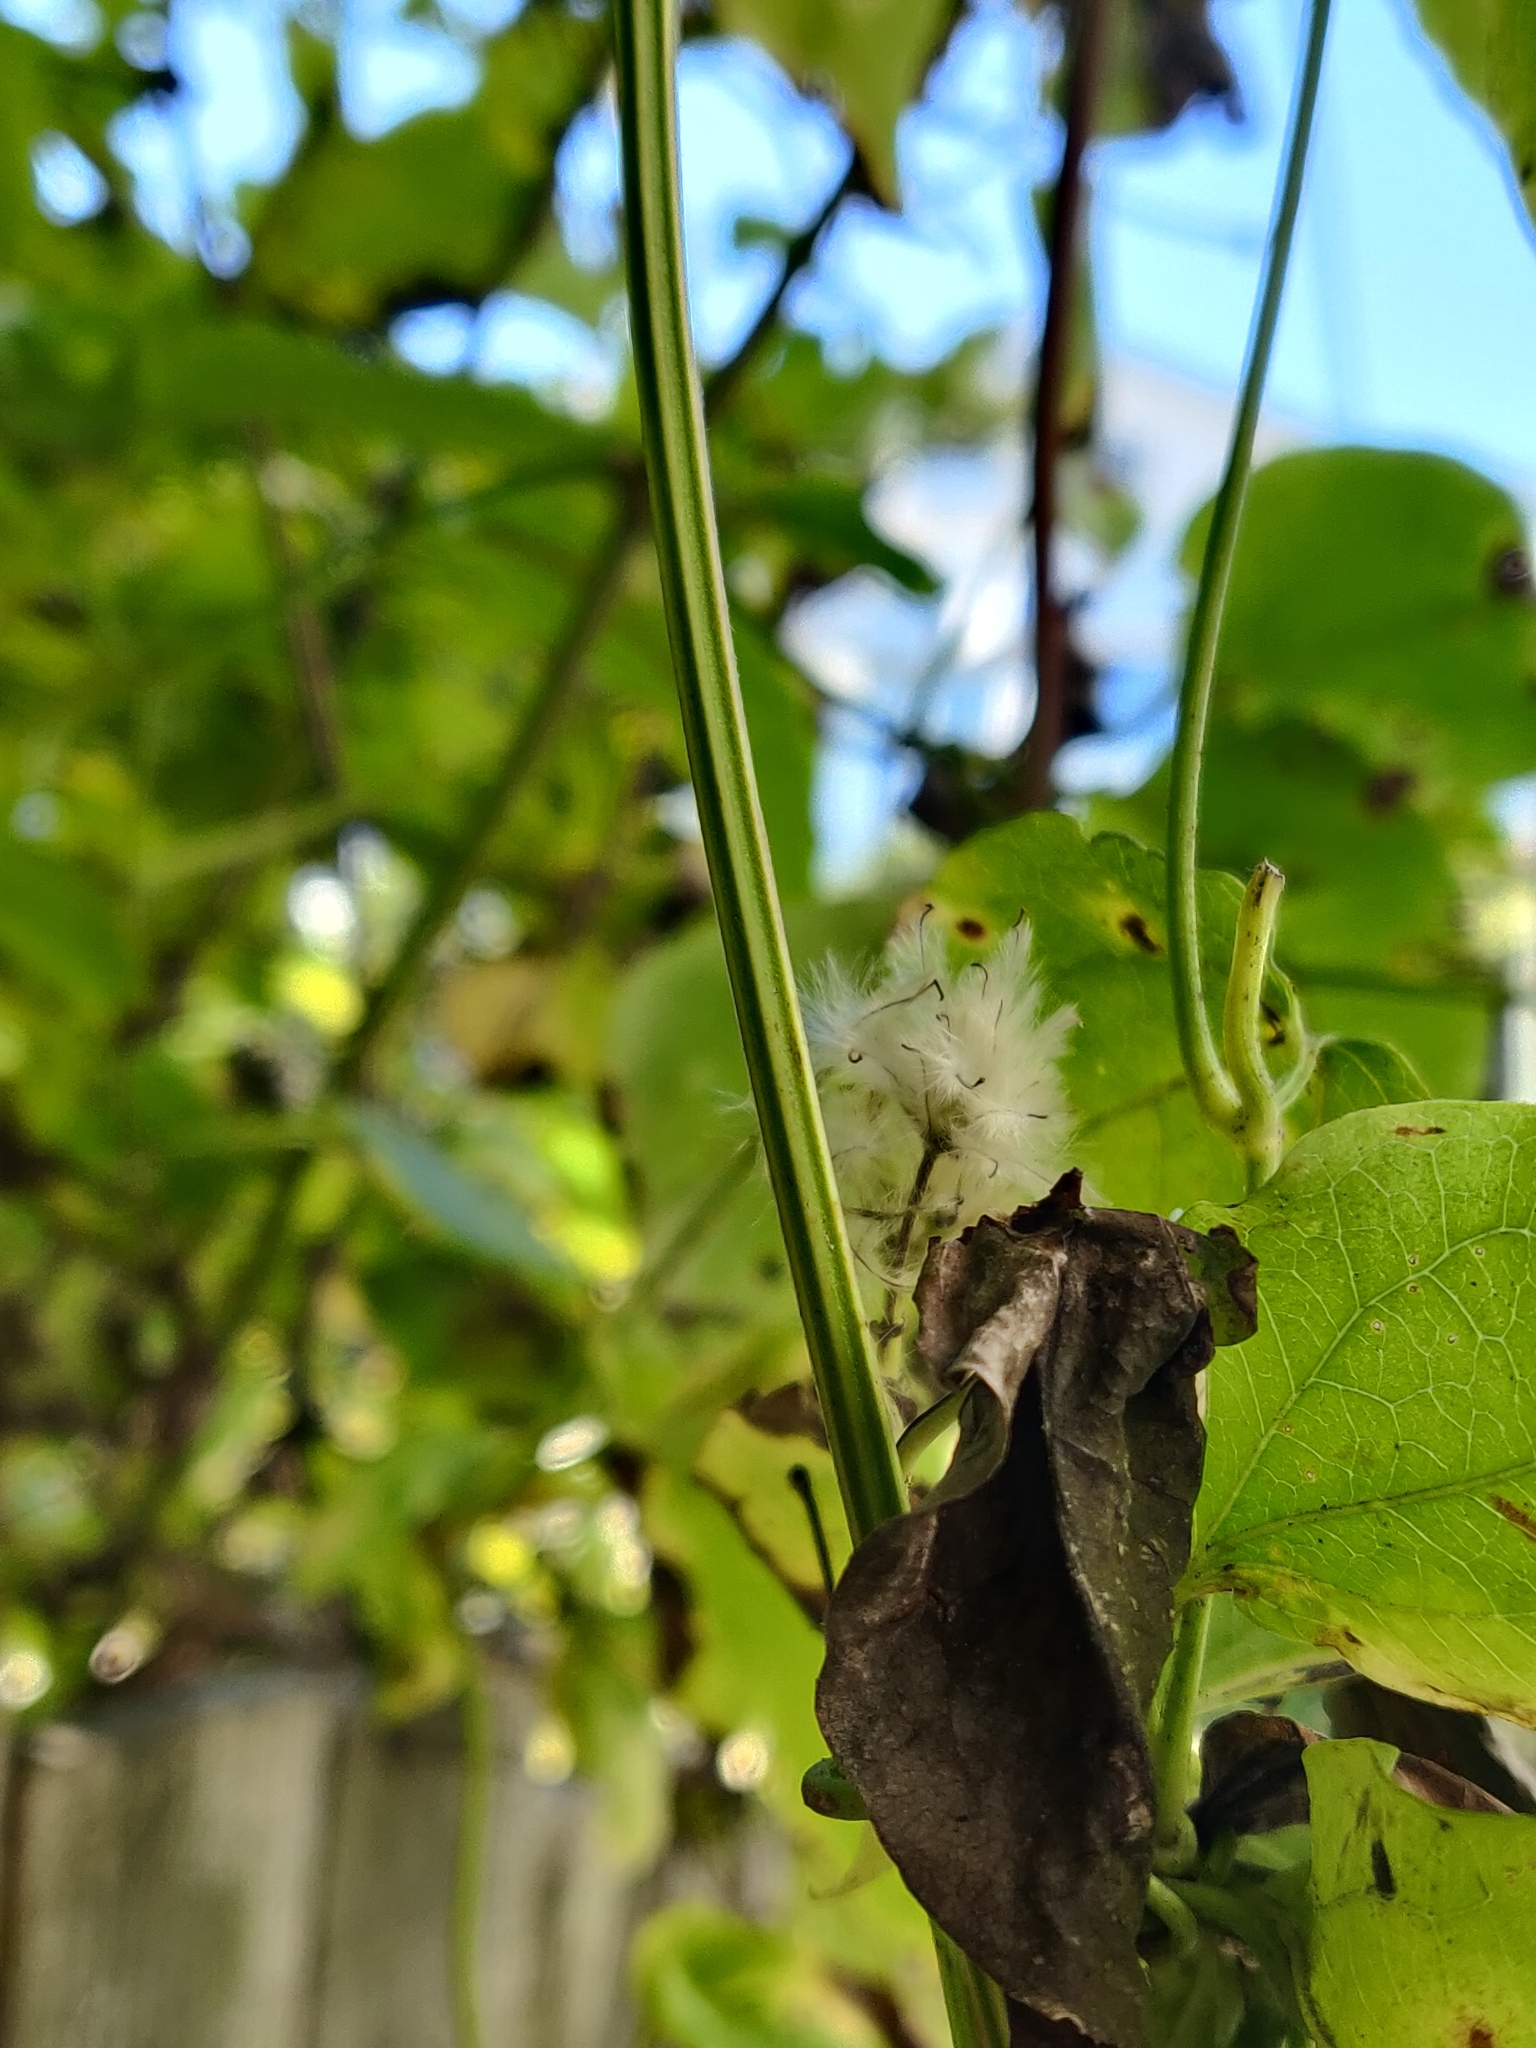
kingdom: Plantae
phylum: Tracheophyta
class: Magnoliopsida
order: Ranunculales
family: Ranunculaceae
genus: Clematis
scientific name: Clematis vitalba
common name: Evergreen clematis
